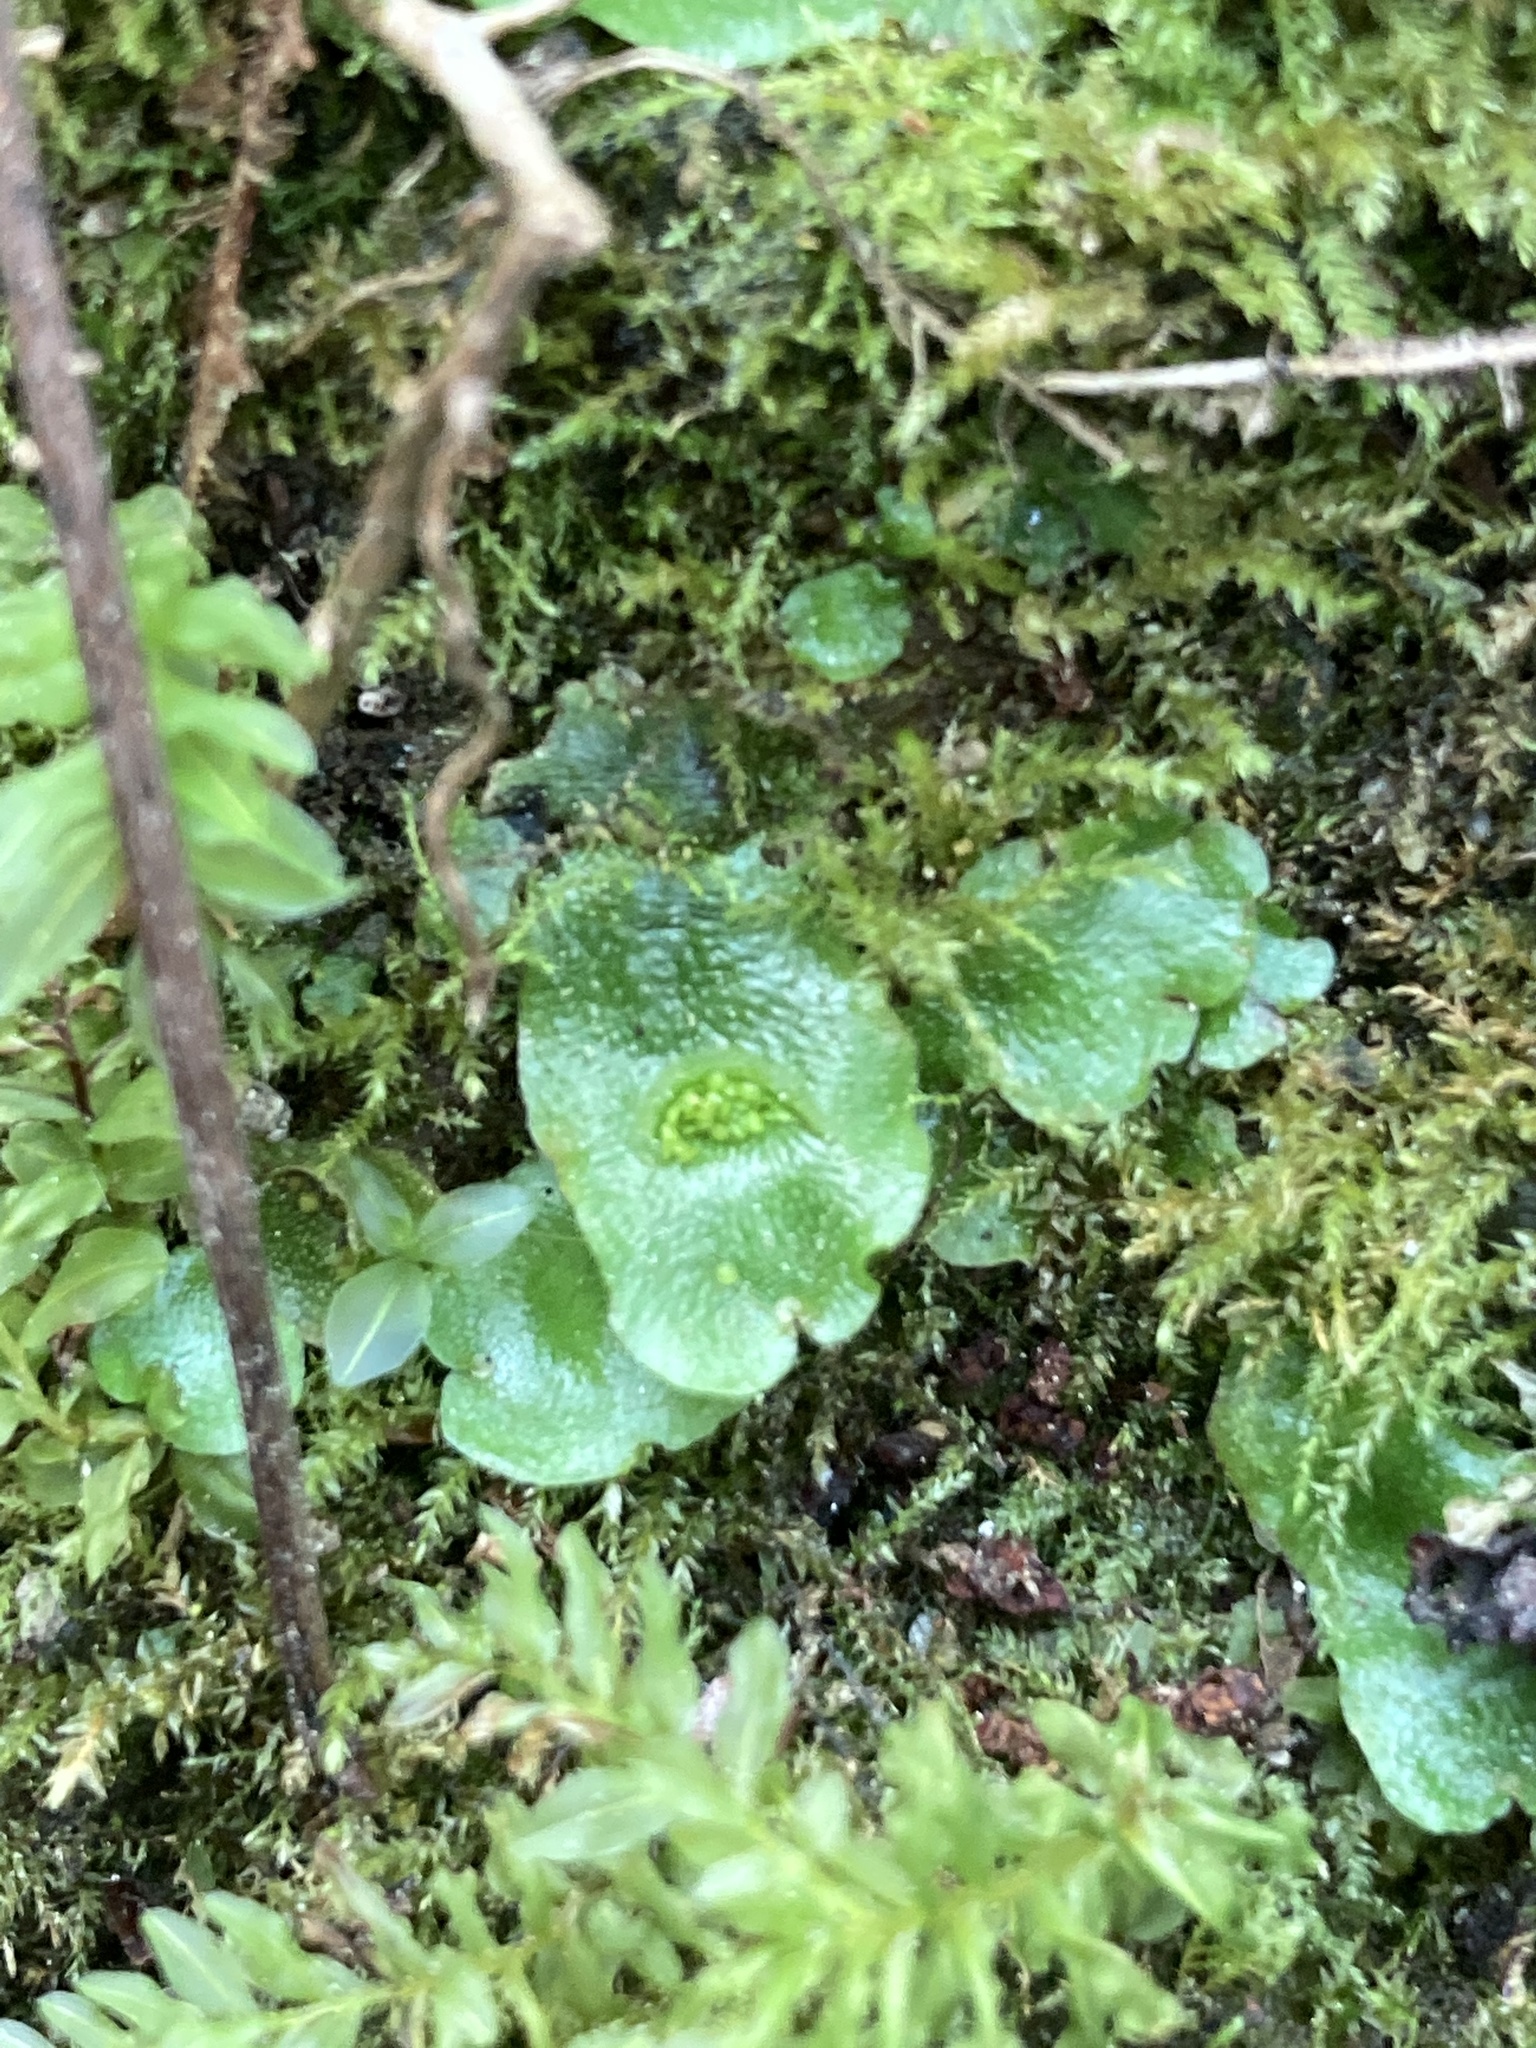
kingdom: Plantae
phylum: Marchantiophyta
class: Marchantiopsida
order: Lunulariales
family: Lunulariaceae
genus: Lunularia
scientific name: Lunularia cruciata
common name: Crescent-cup liverwort
